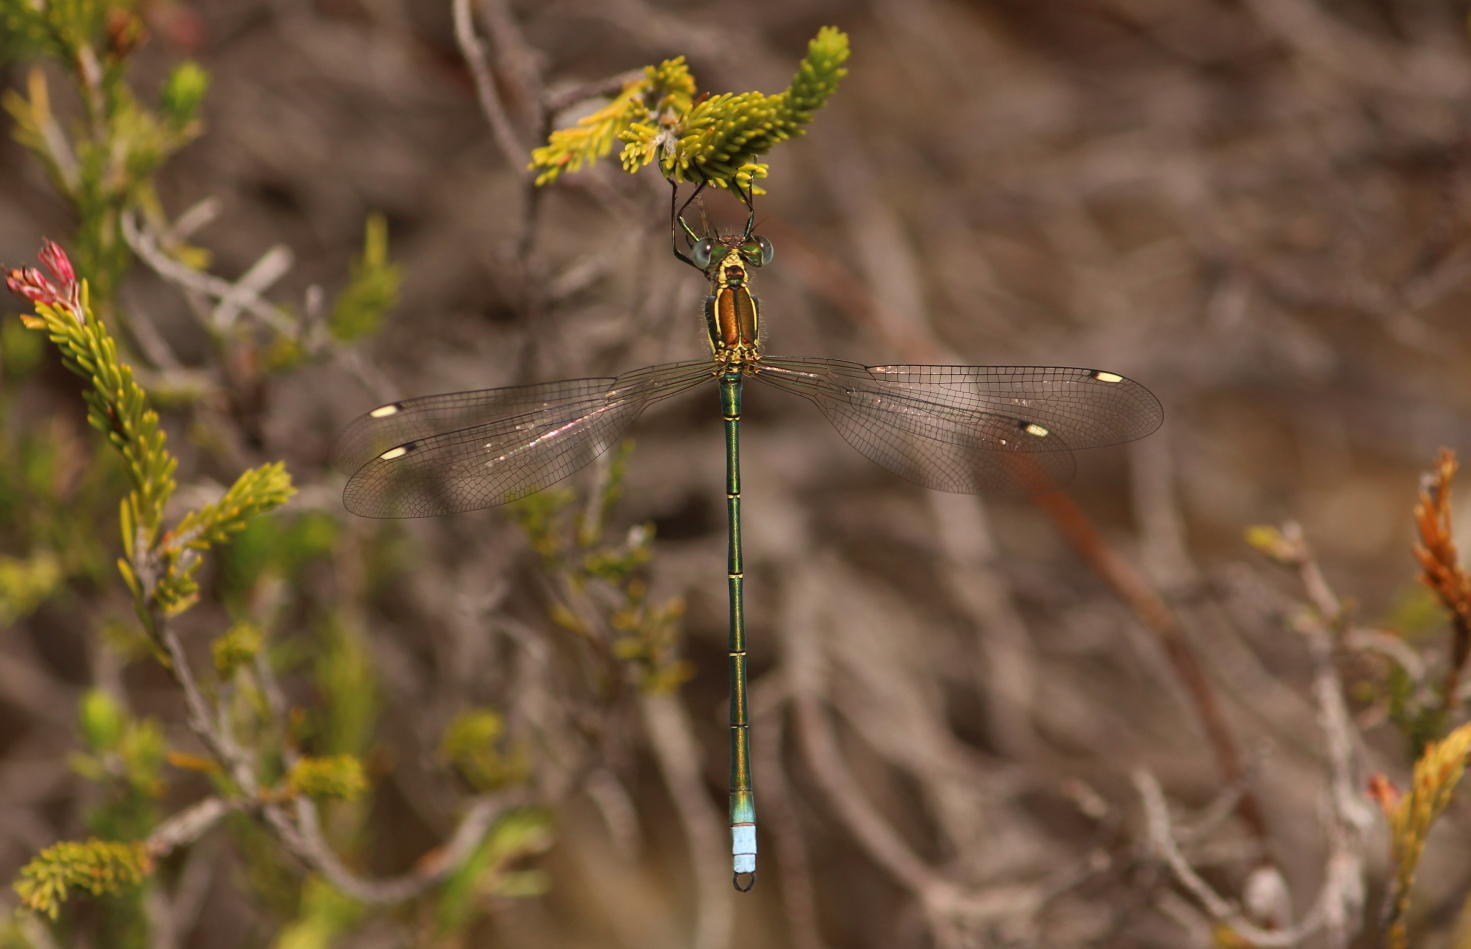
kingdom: Animalia
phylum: Arthropoda
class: Insecta
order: Odonata
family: Synlestidae
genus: Chlorolestes
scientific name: Chlorolestes fasciatus
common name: Mountain malachite
